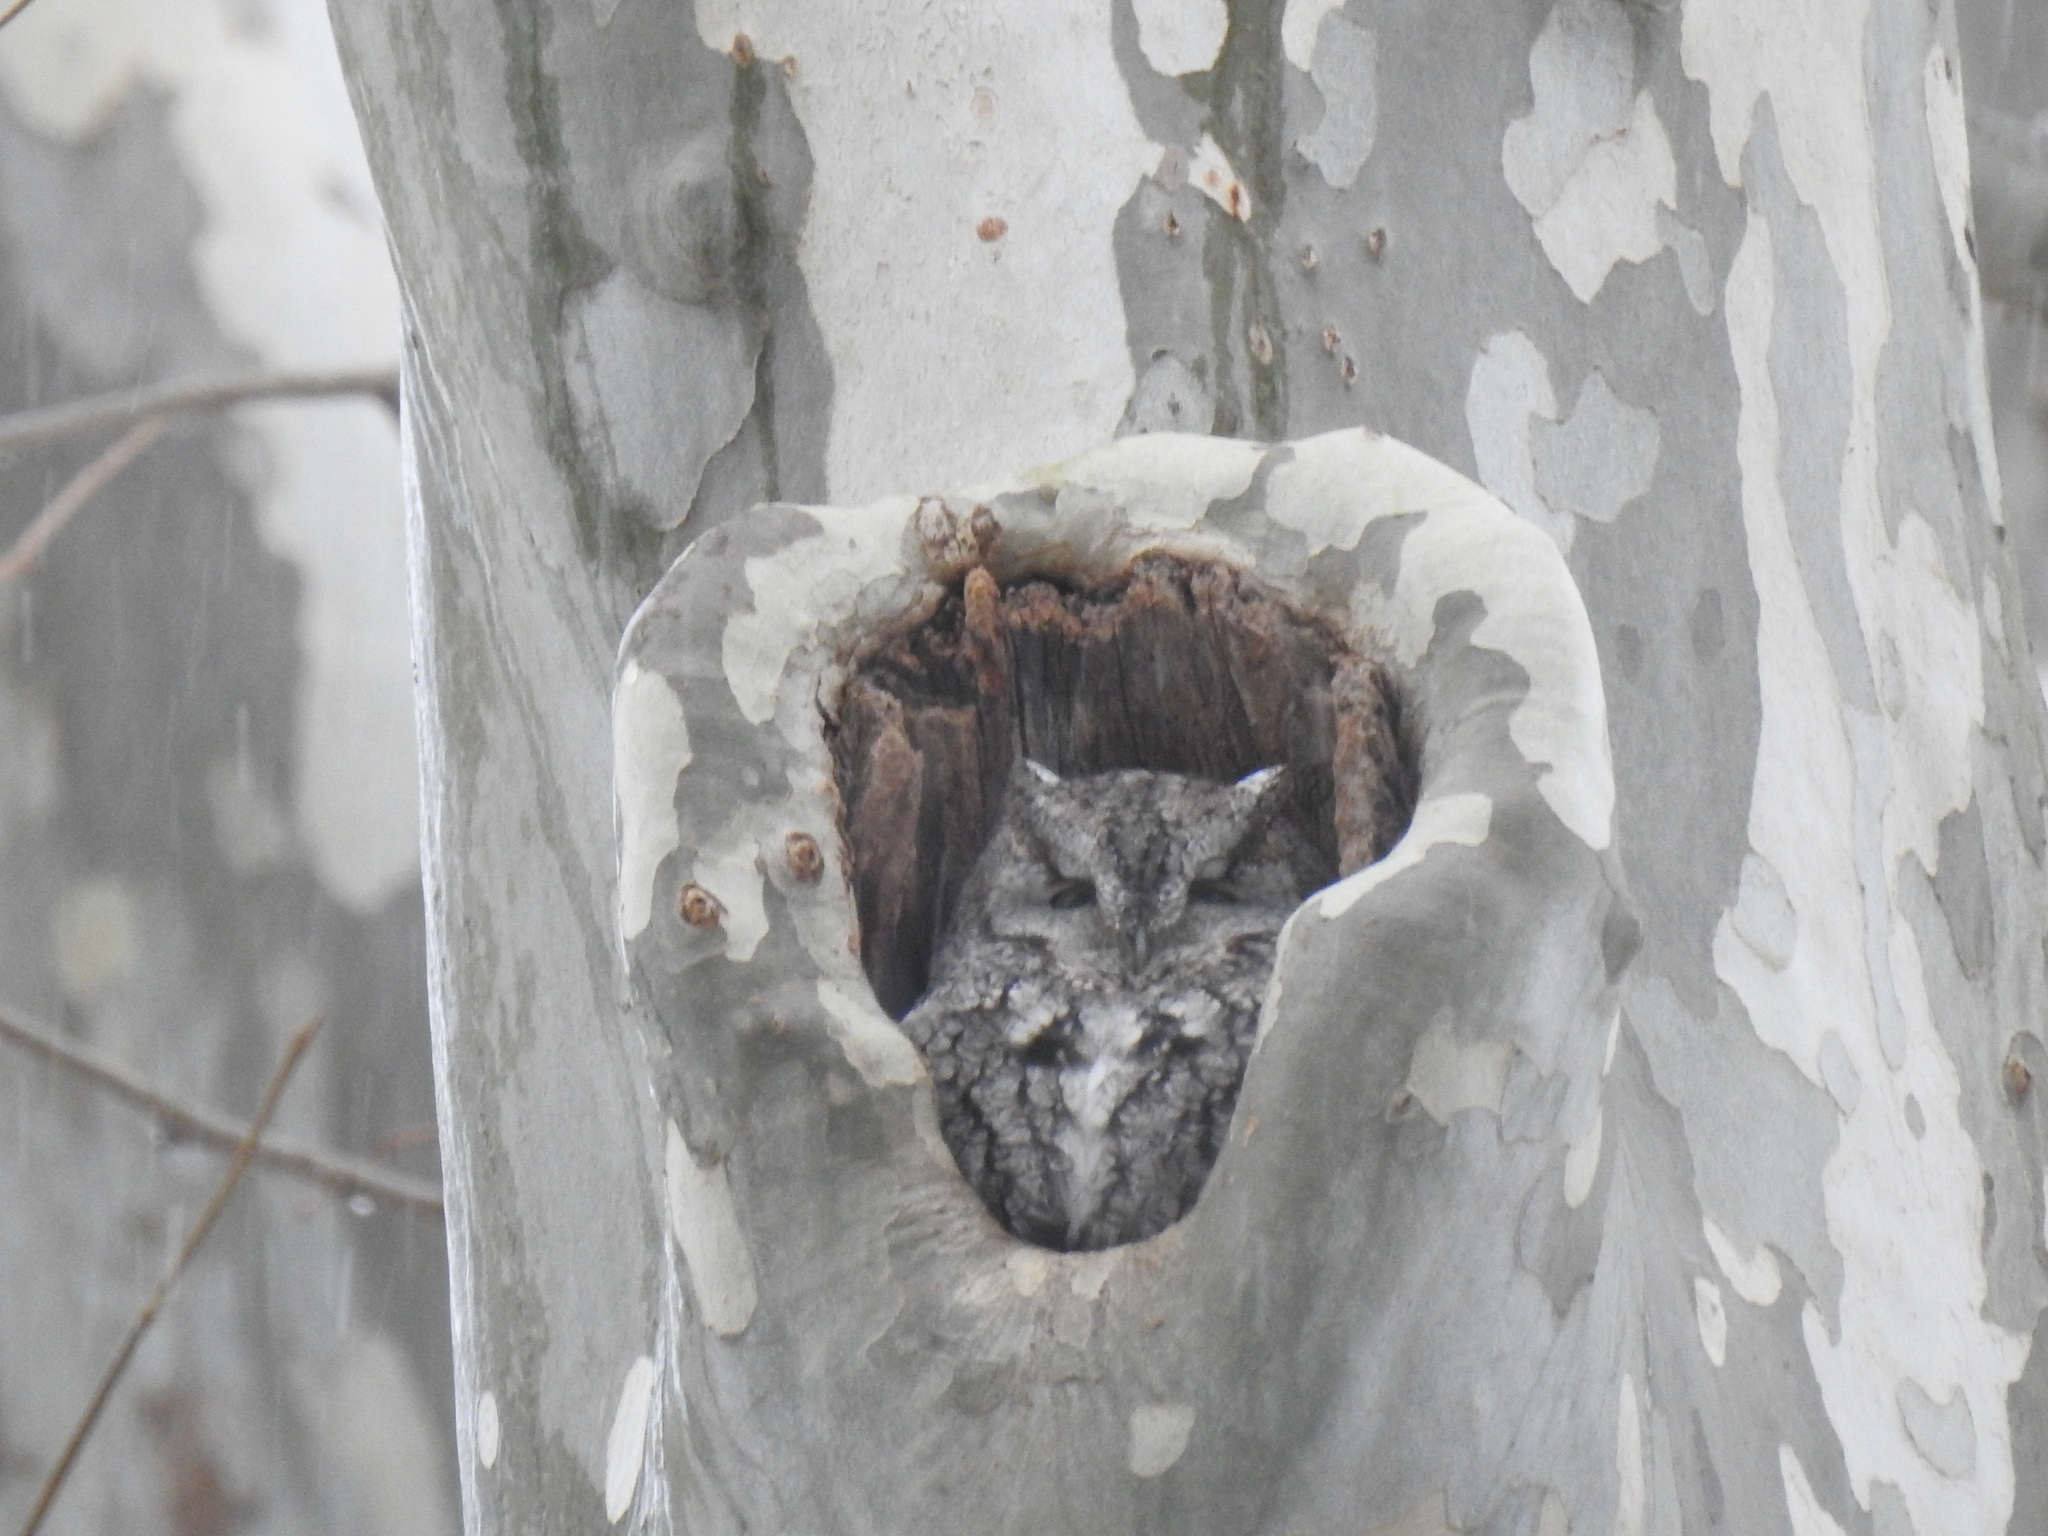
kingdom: Animalia
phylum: Chordata
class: Aves
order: Strigiformes
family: Strigidae
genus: Megascops
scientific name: Megascops asio
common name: Eastern screech-owl
